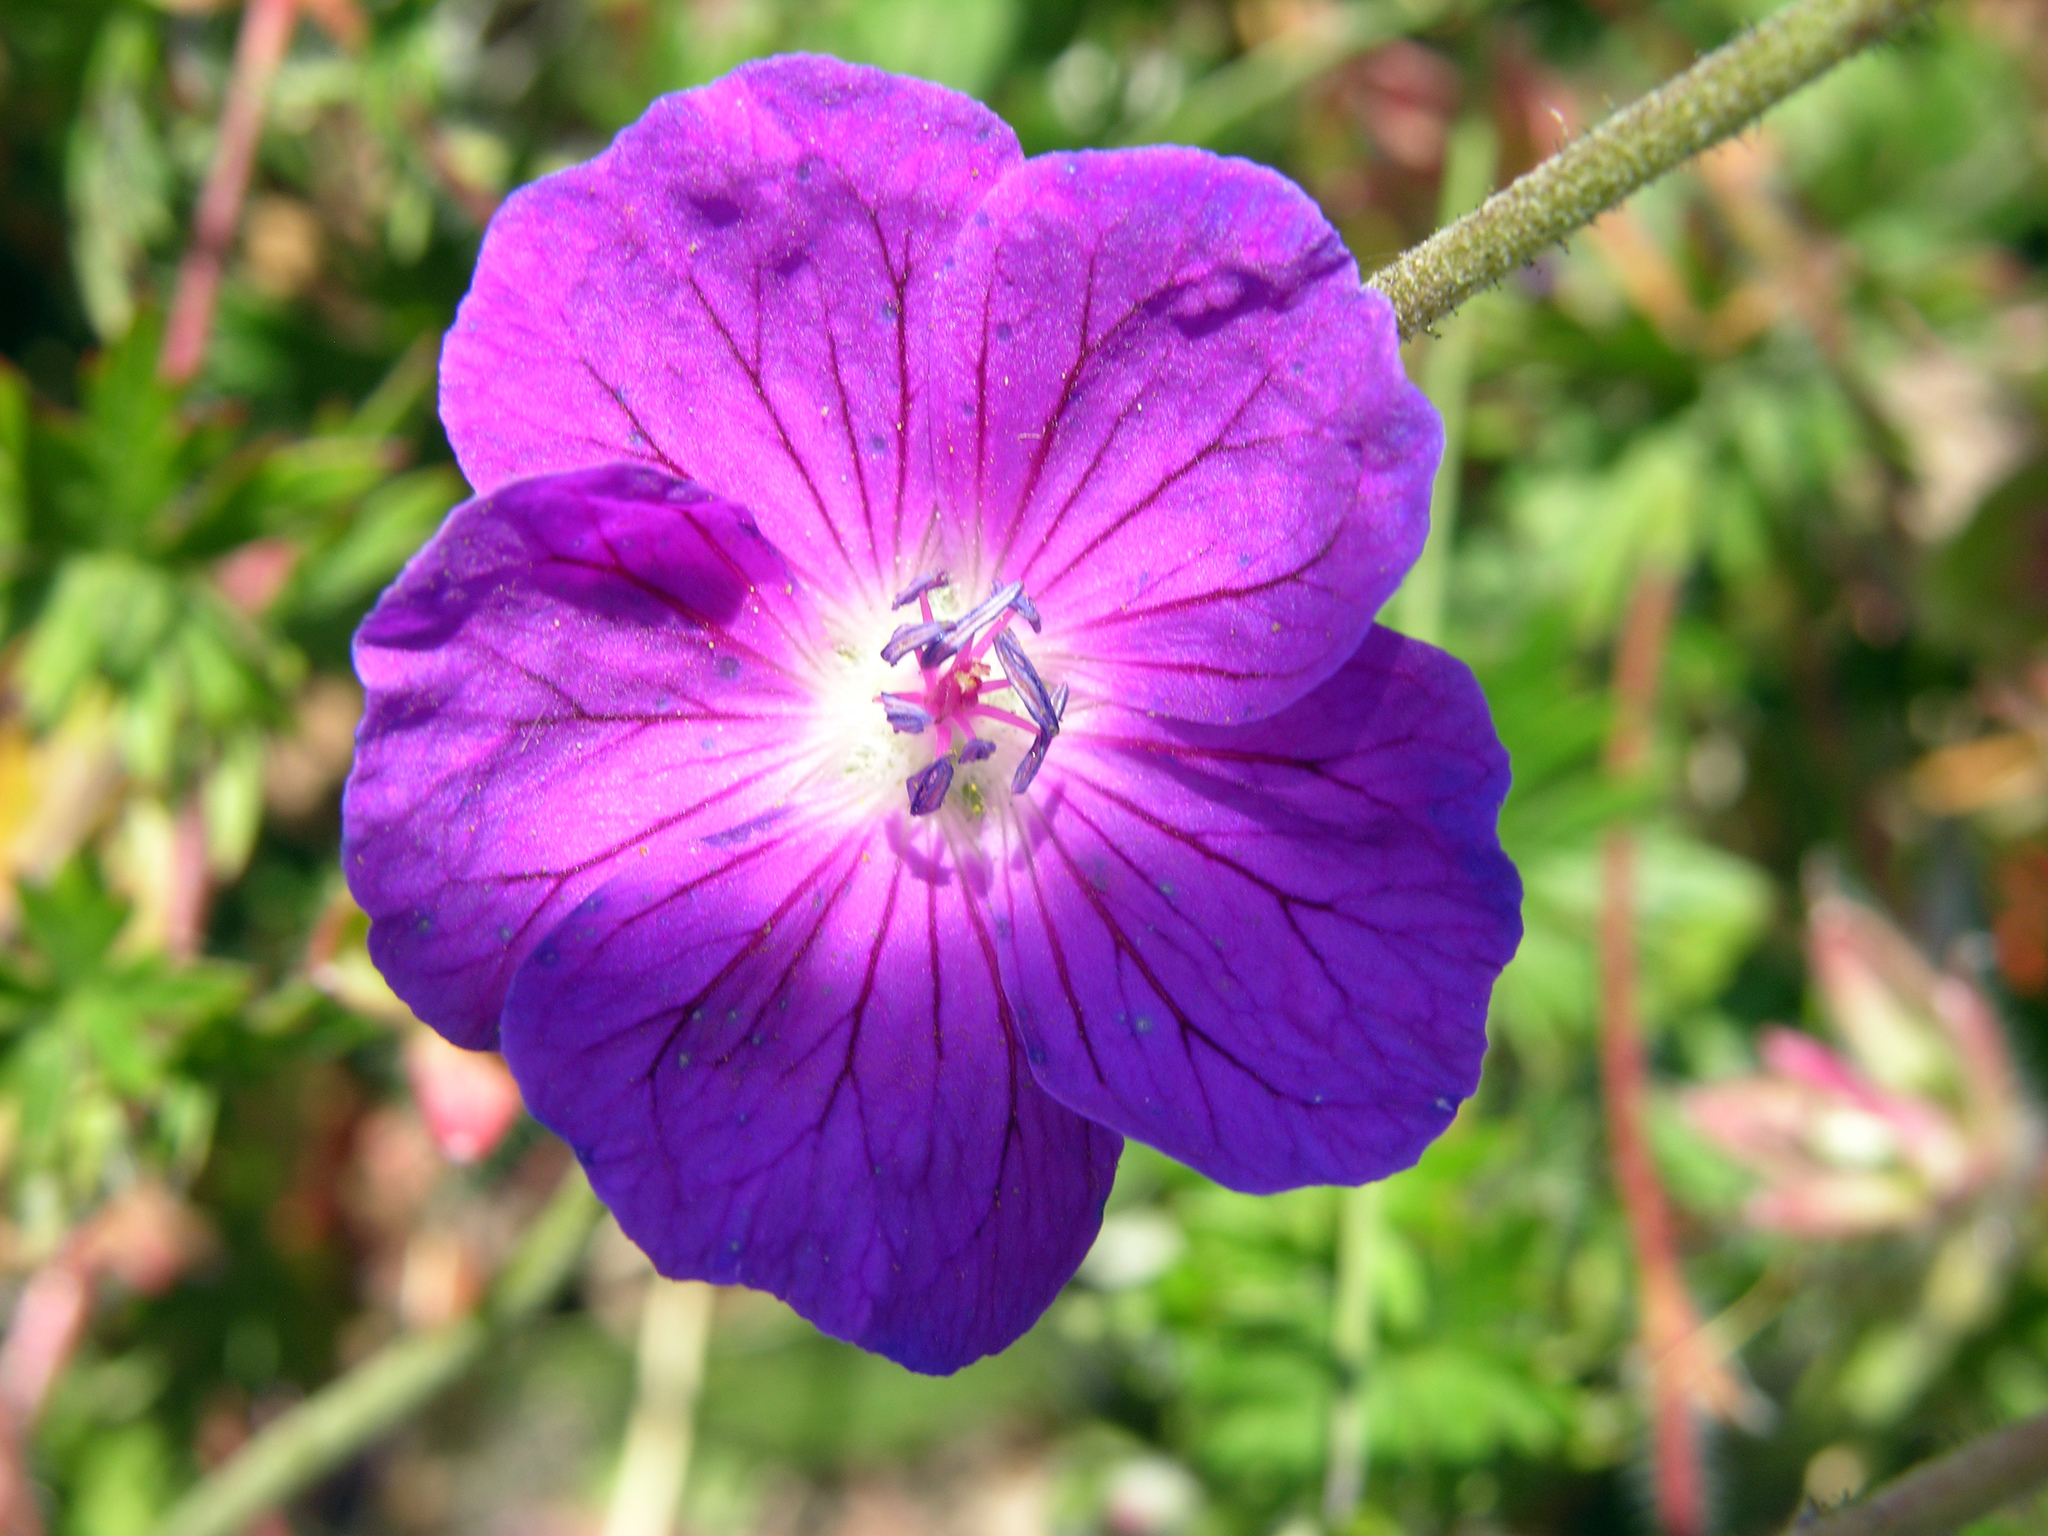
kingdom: Plantae
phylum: Tracheophyta
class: Magnoliopsida
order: Geraniales
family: Geraniaceae
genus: Geranium
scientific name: Geranium sanguineum
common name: Bloody crane's-bill
